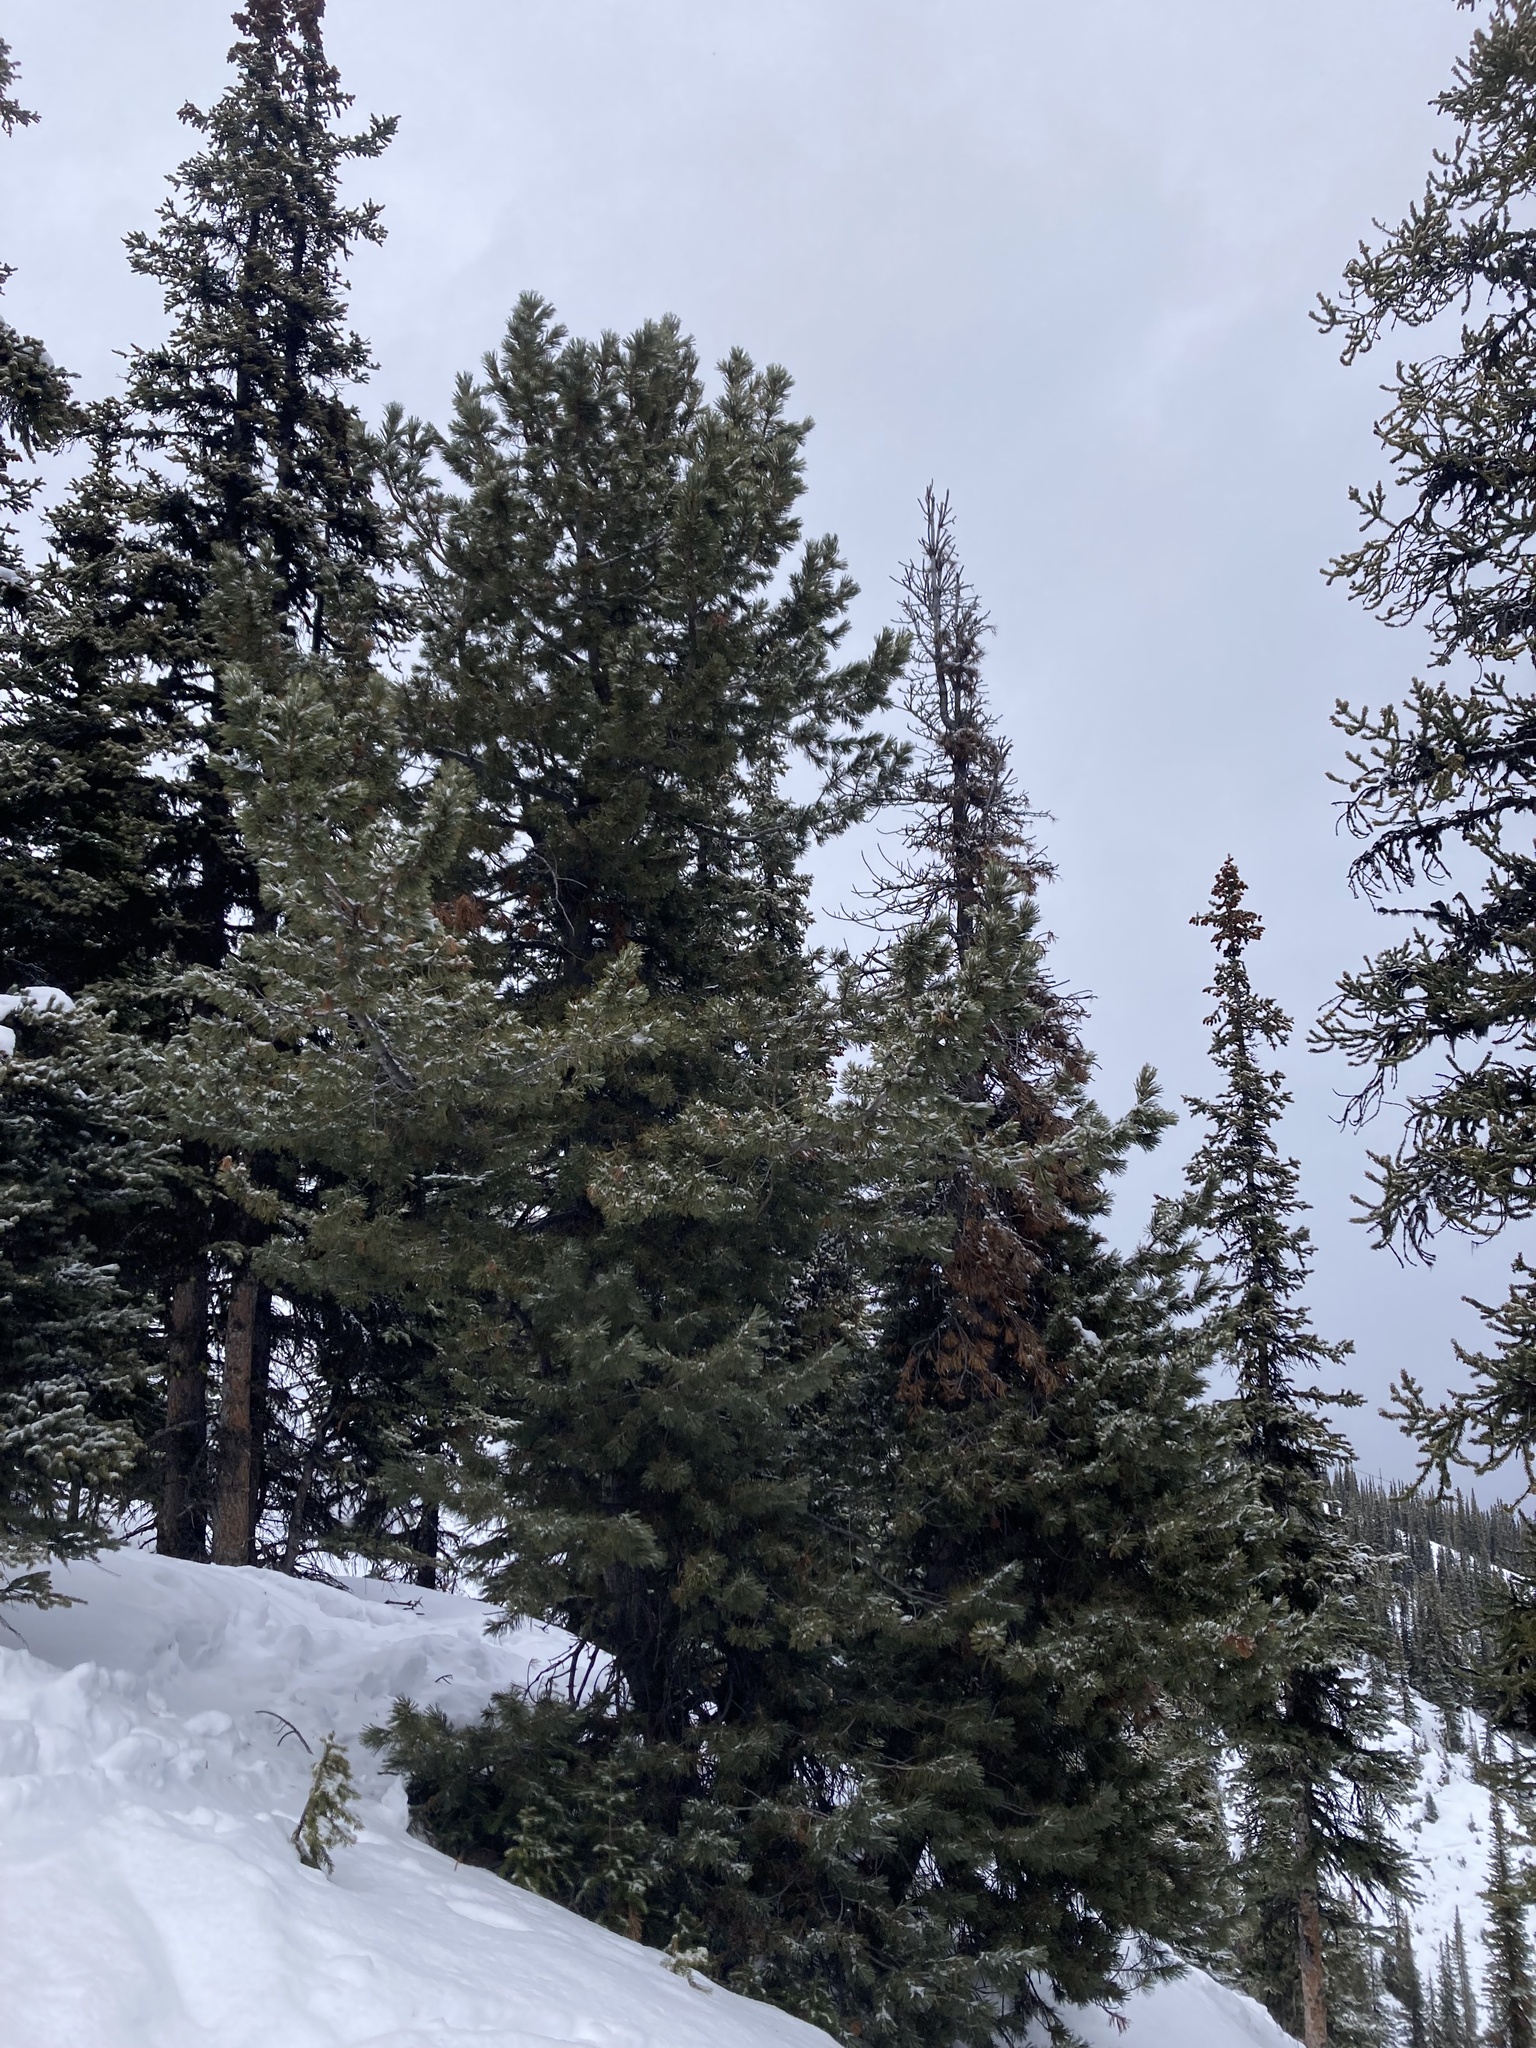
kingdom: Plantae
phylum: Tracheophyta
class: Pinopsida
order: Pinales
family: Pinaceae
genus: Pinus
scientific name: Pinus albicaulis
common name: Whitebark pine
